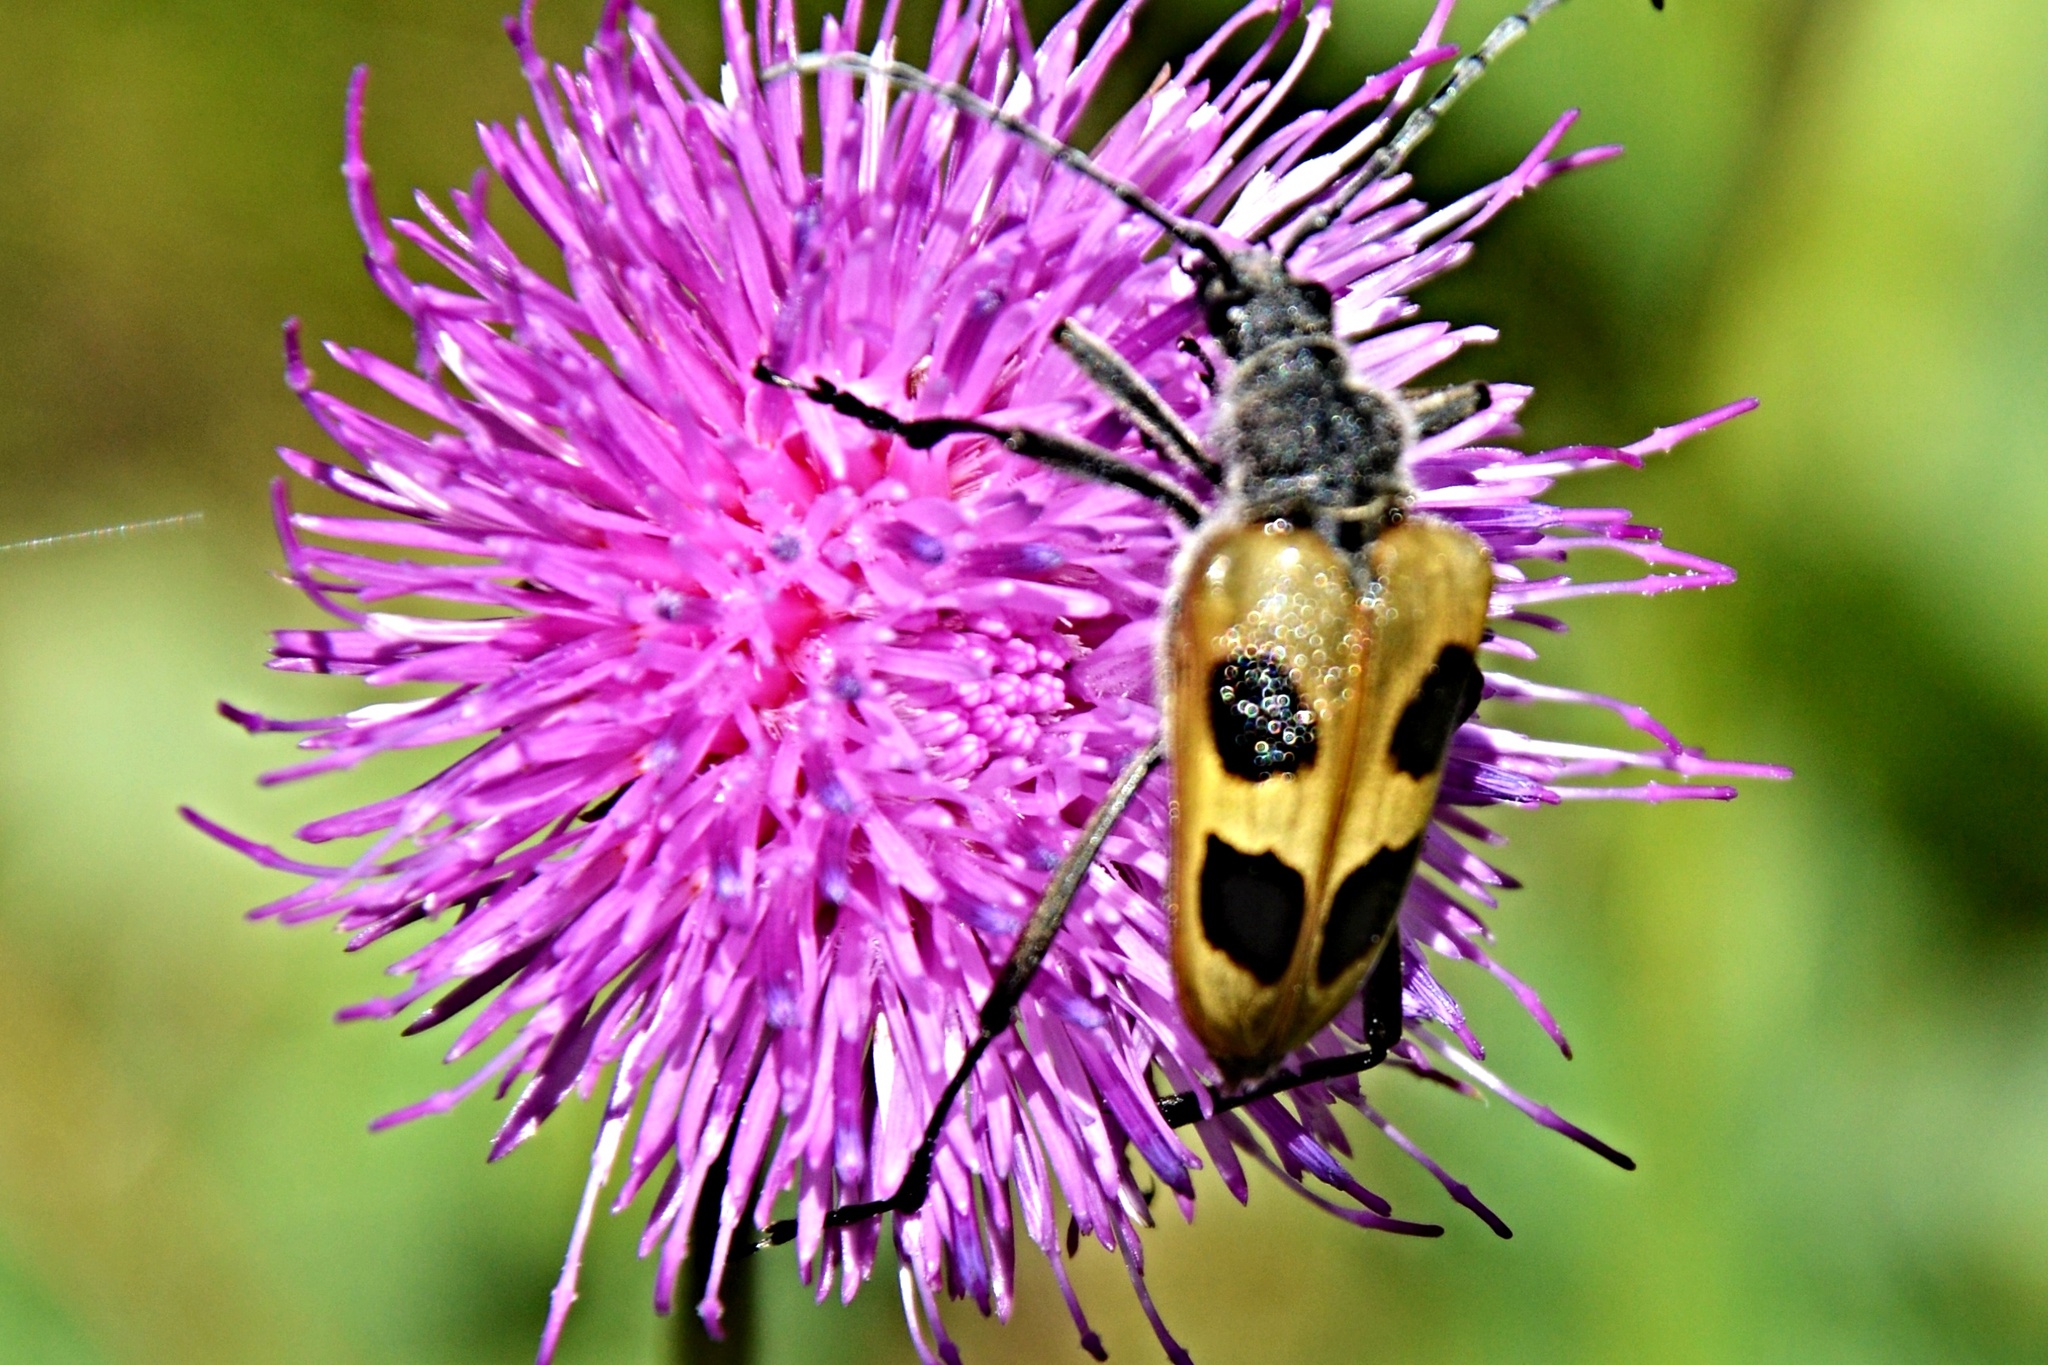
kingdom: Animalia
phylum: Arthropoda
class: Insecta
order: Coleoptera
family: Cerambycidae
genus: Pachyta
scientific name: Pachyta quadrimaculata
